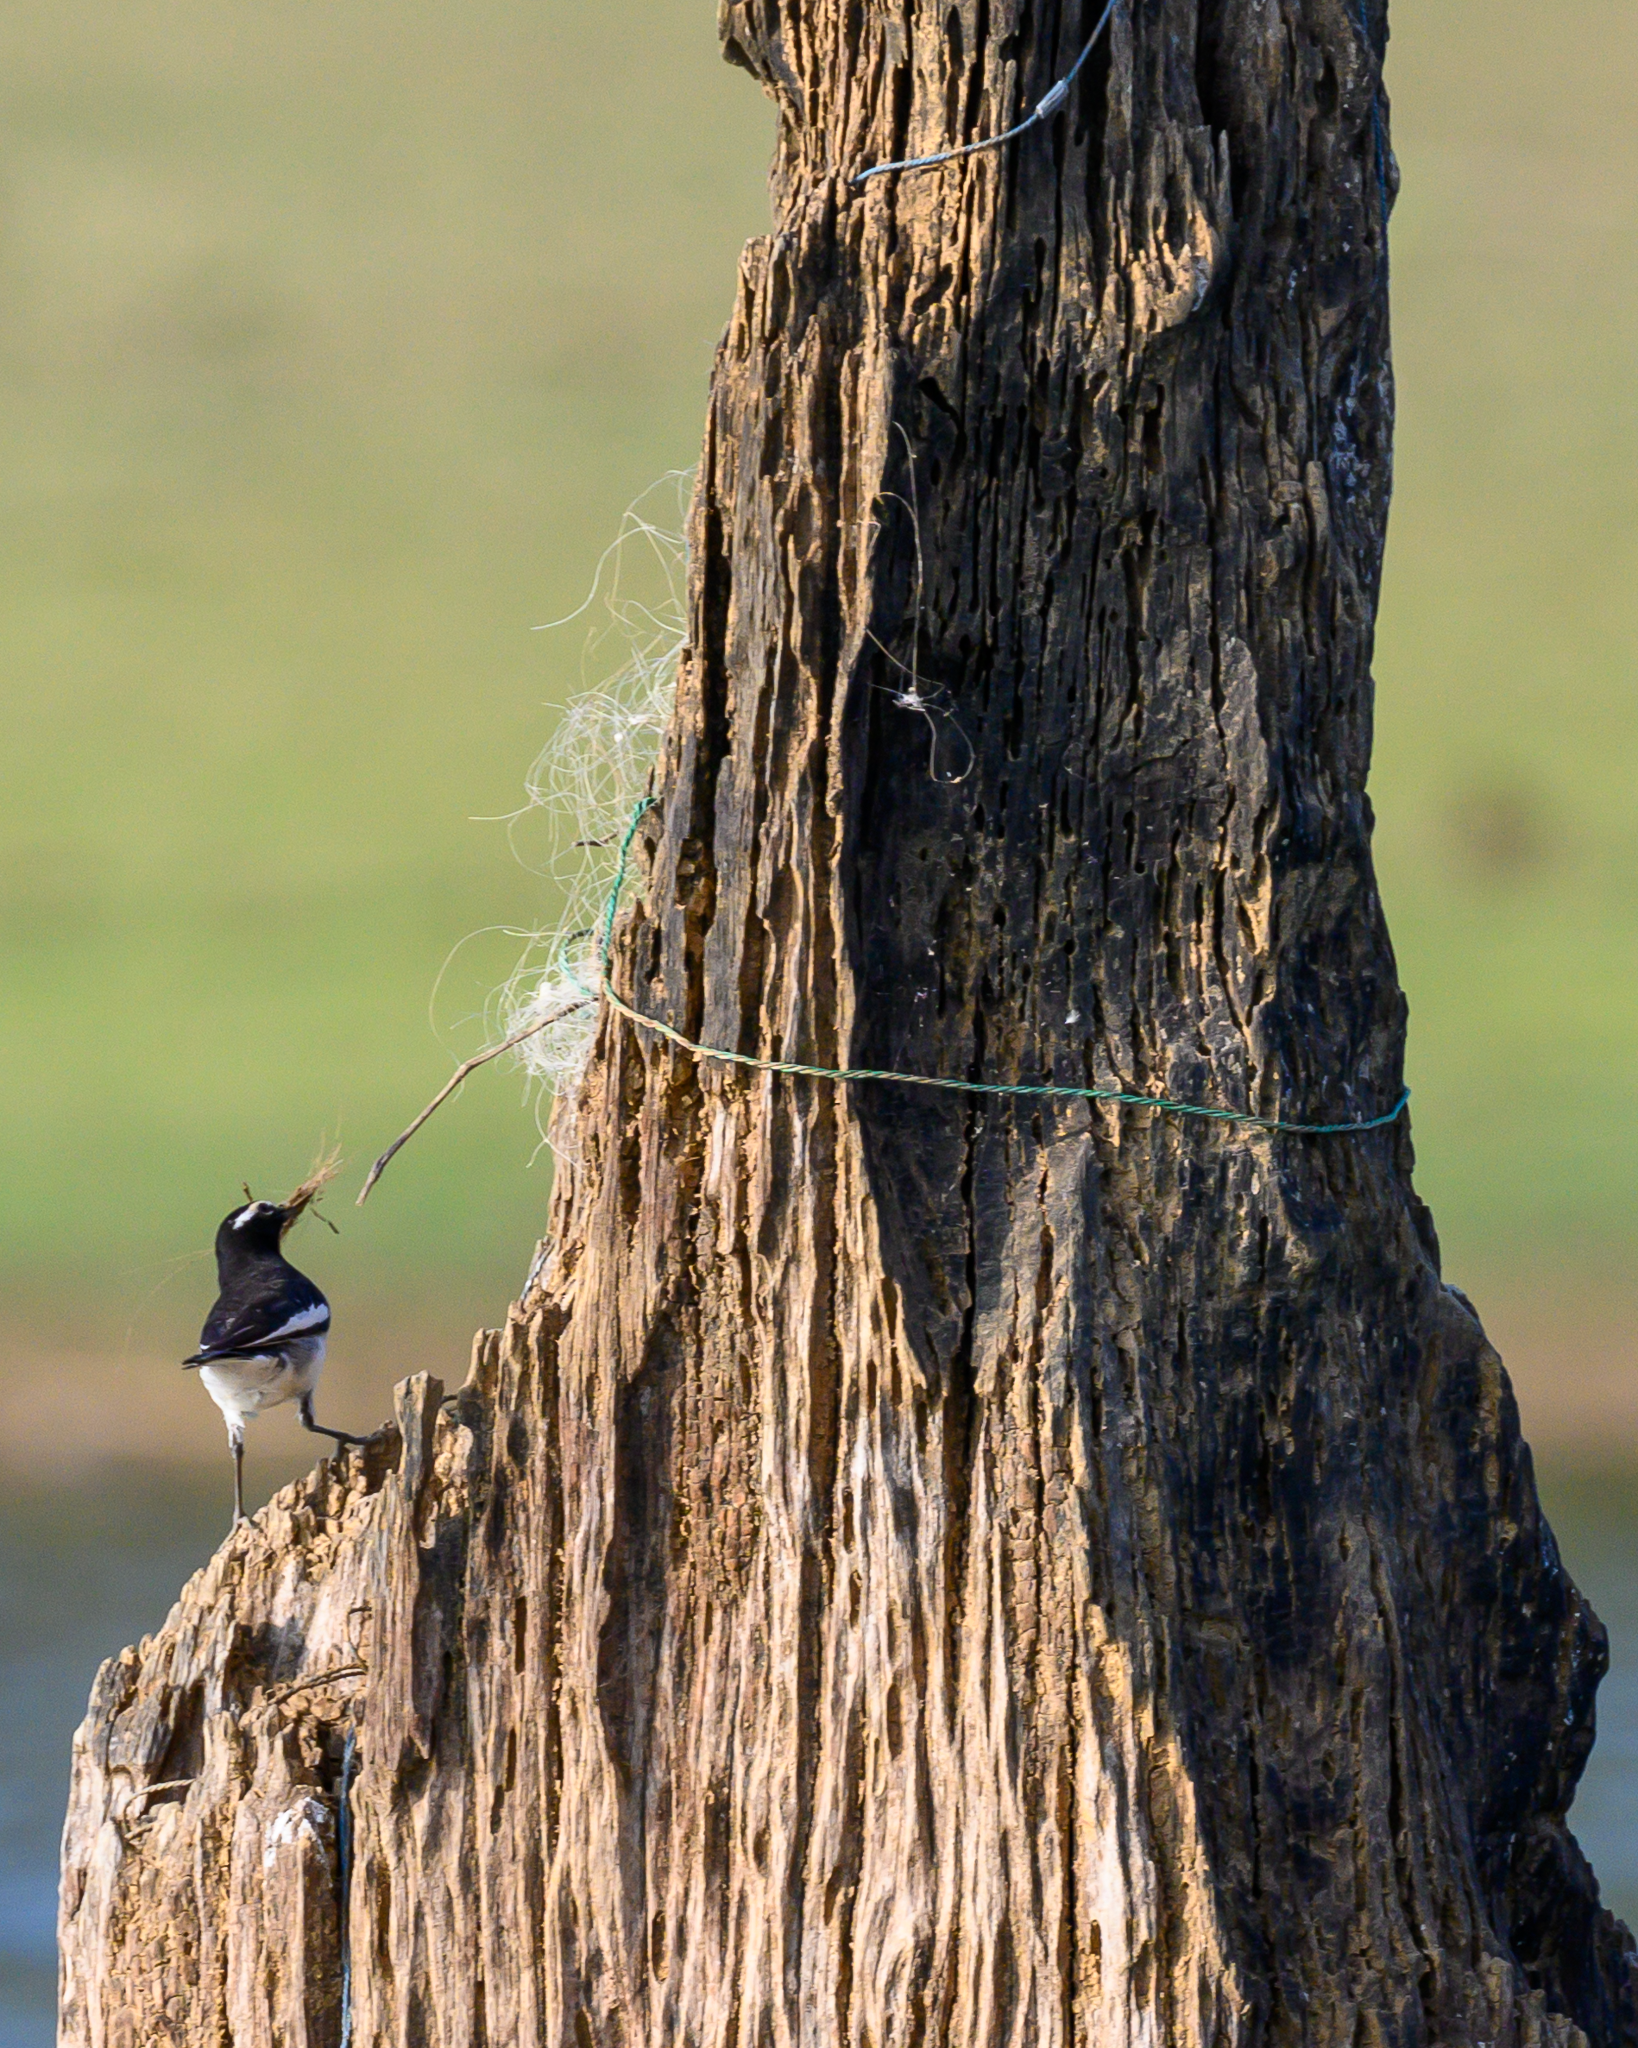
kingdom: Animalia
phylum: Chordata
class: Aves
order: Passeriformes
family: Motacillidae
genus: Motacilla
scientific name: Motacilla maderaspatensis
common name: White-browed wagtail
